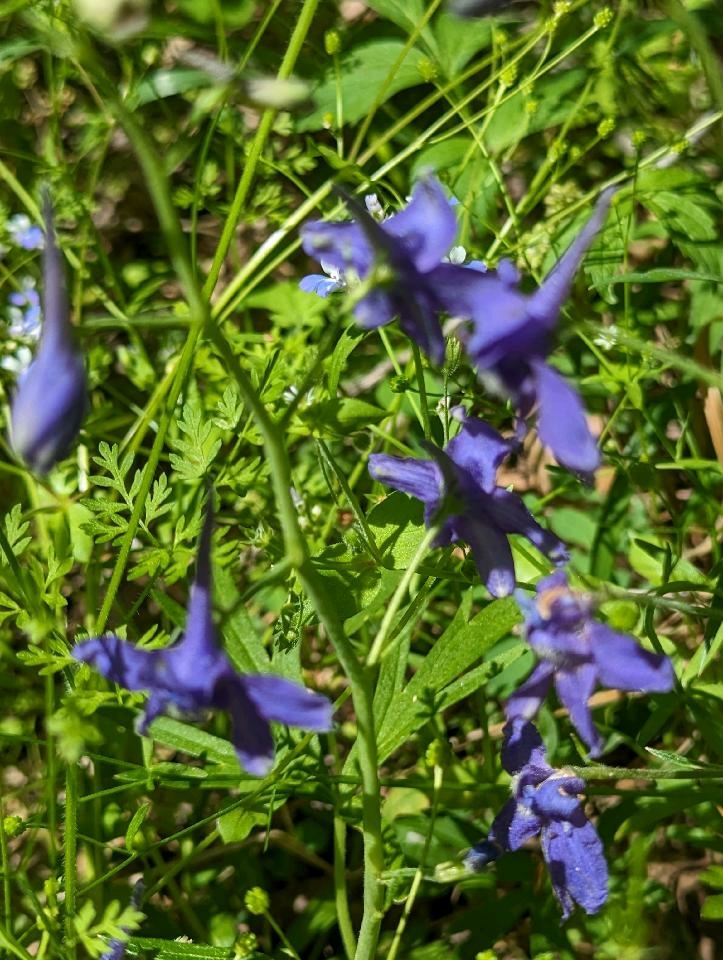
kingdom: Plantae
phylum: Tracheophyta
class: Magnoliopsida
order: Ranunculales
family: Ranunculaceae
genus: Delphinium
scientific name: Delphinium tricorne
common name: Dwarf larkspur
